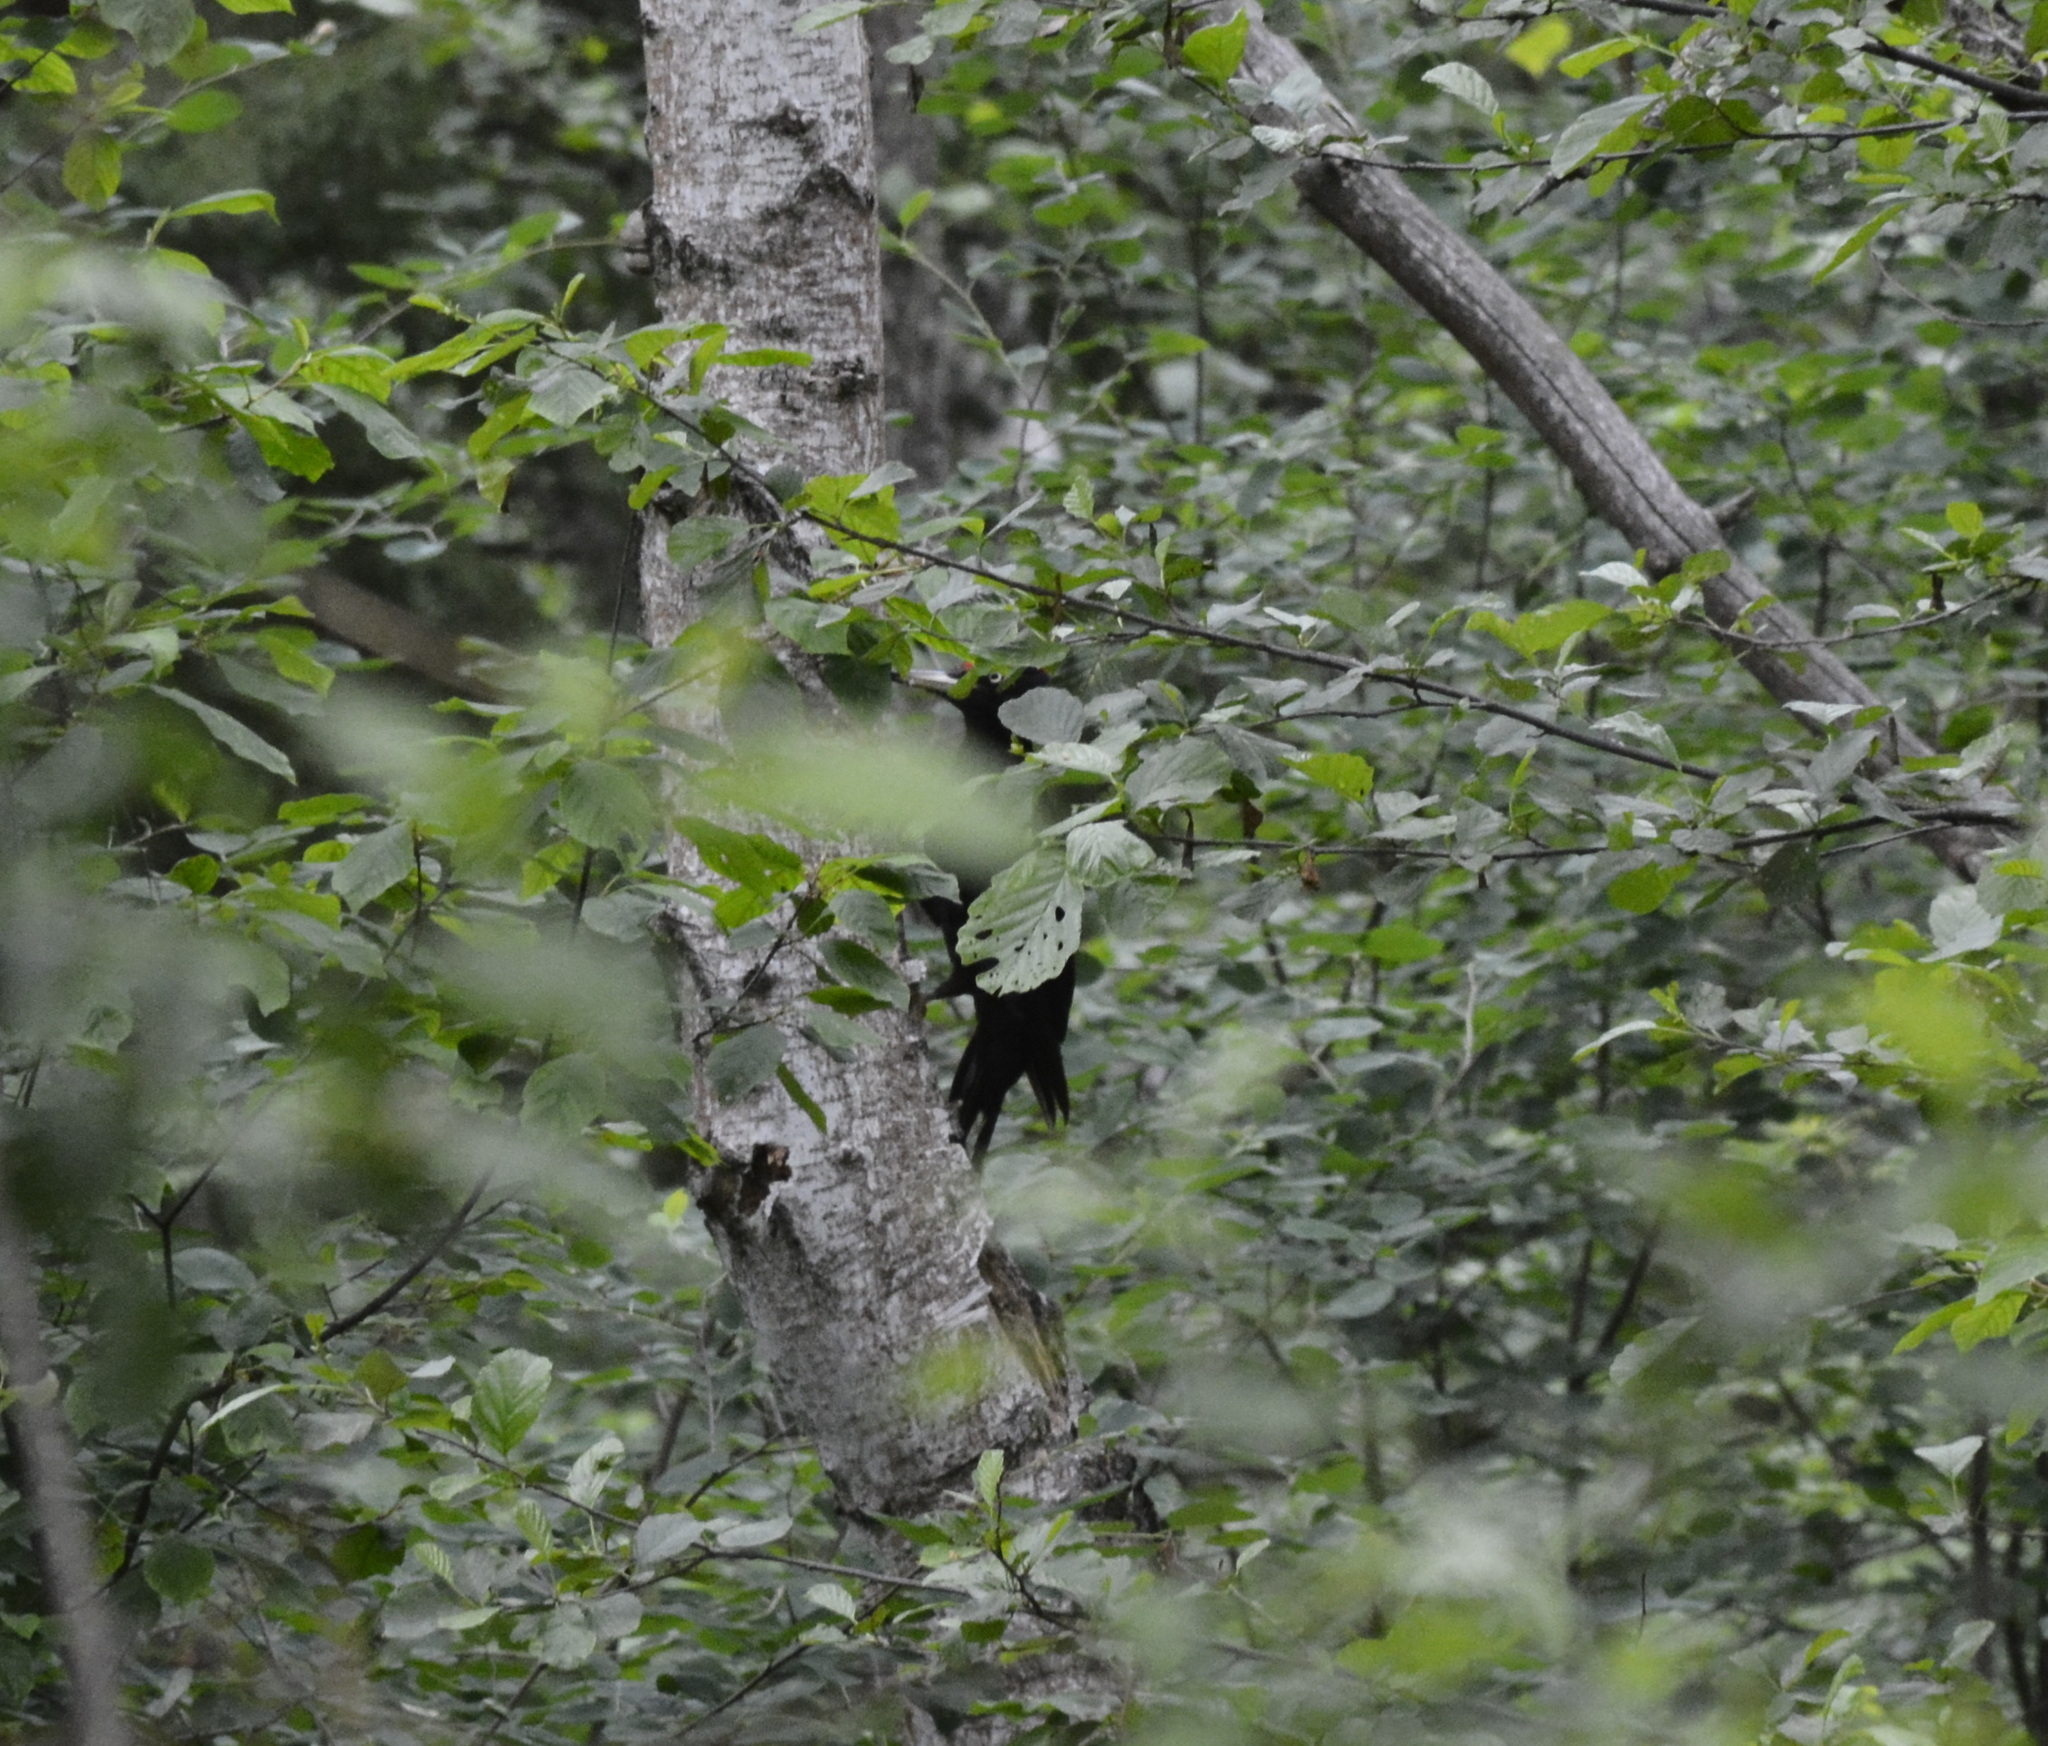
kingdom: Animalia
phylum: Chordata
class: Aves
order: Piciformes
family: Picidae
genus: Dryocopus
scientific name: Dryocopus martius
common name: Black woodpecker
